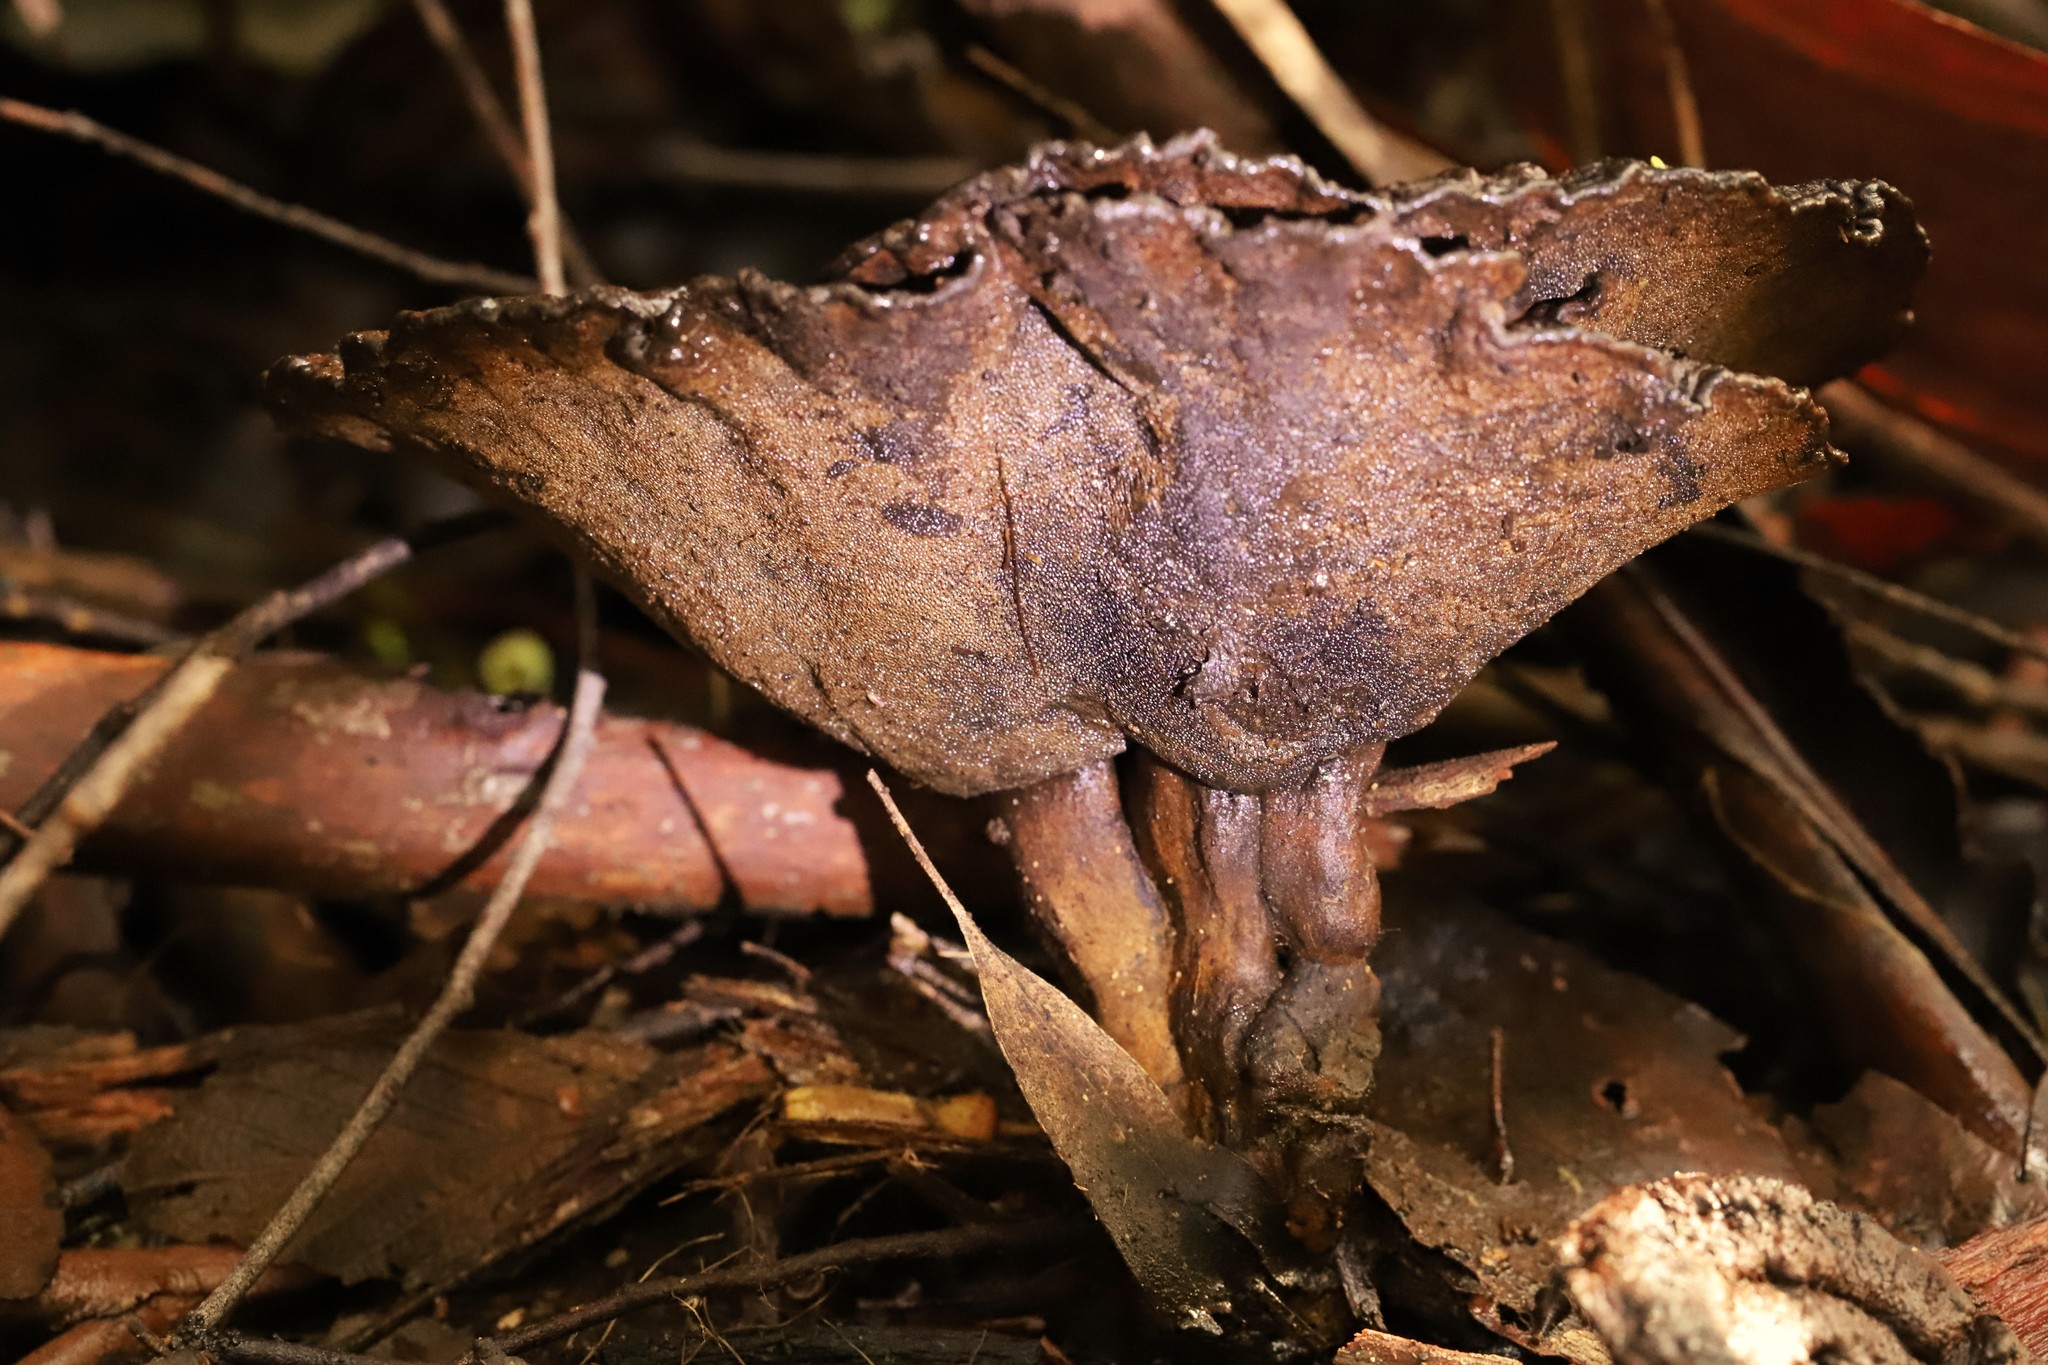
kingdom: Fungi
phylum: Basidiomycota
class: Agaricomycetes
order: Polyporales
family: Ganodermataceae
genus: Sanguinoderma
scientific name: Sanguinoderma rude
